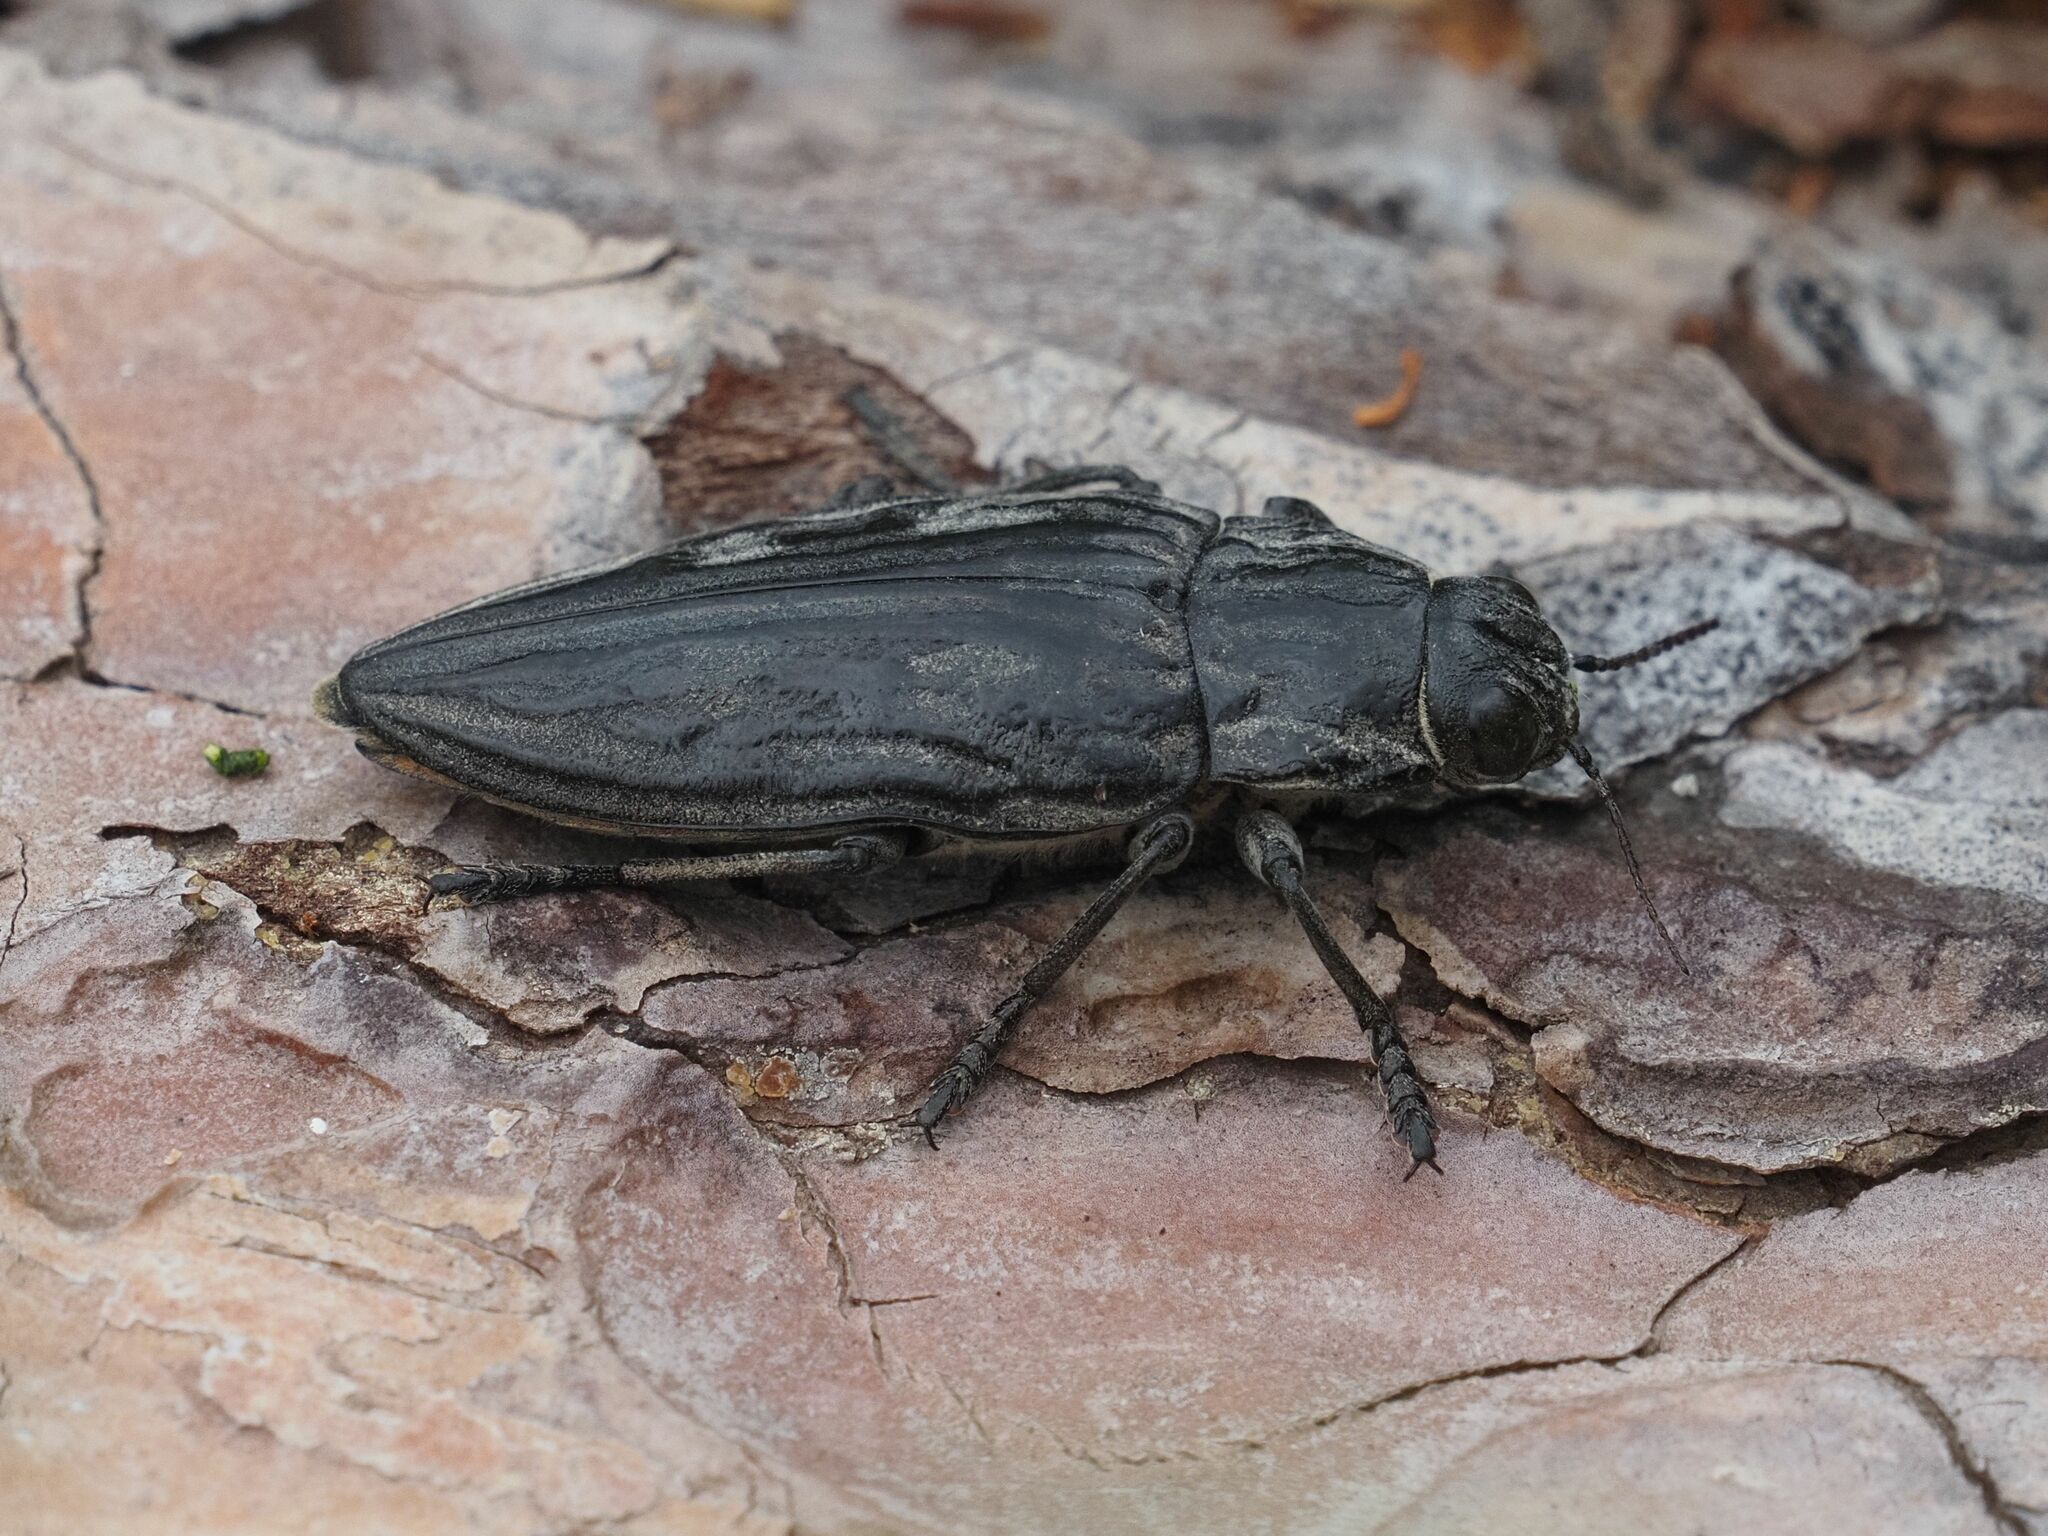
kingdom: Animalia
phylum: Arthropoda
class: Insecta
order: Coleoptera
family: Buprestidae
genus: Chalcophora
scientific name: Chalcophora mariana
